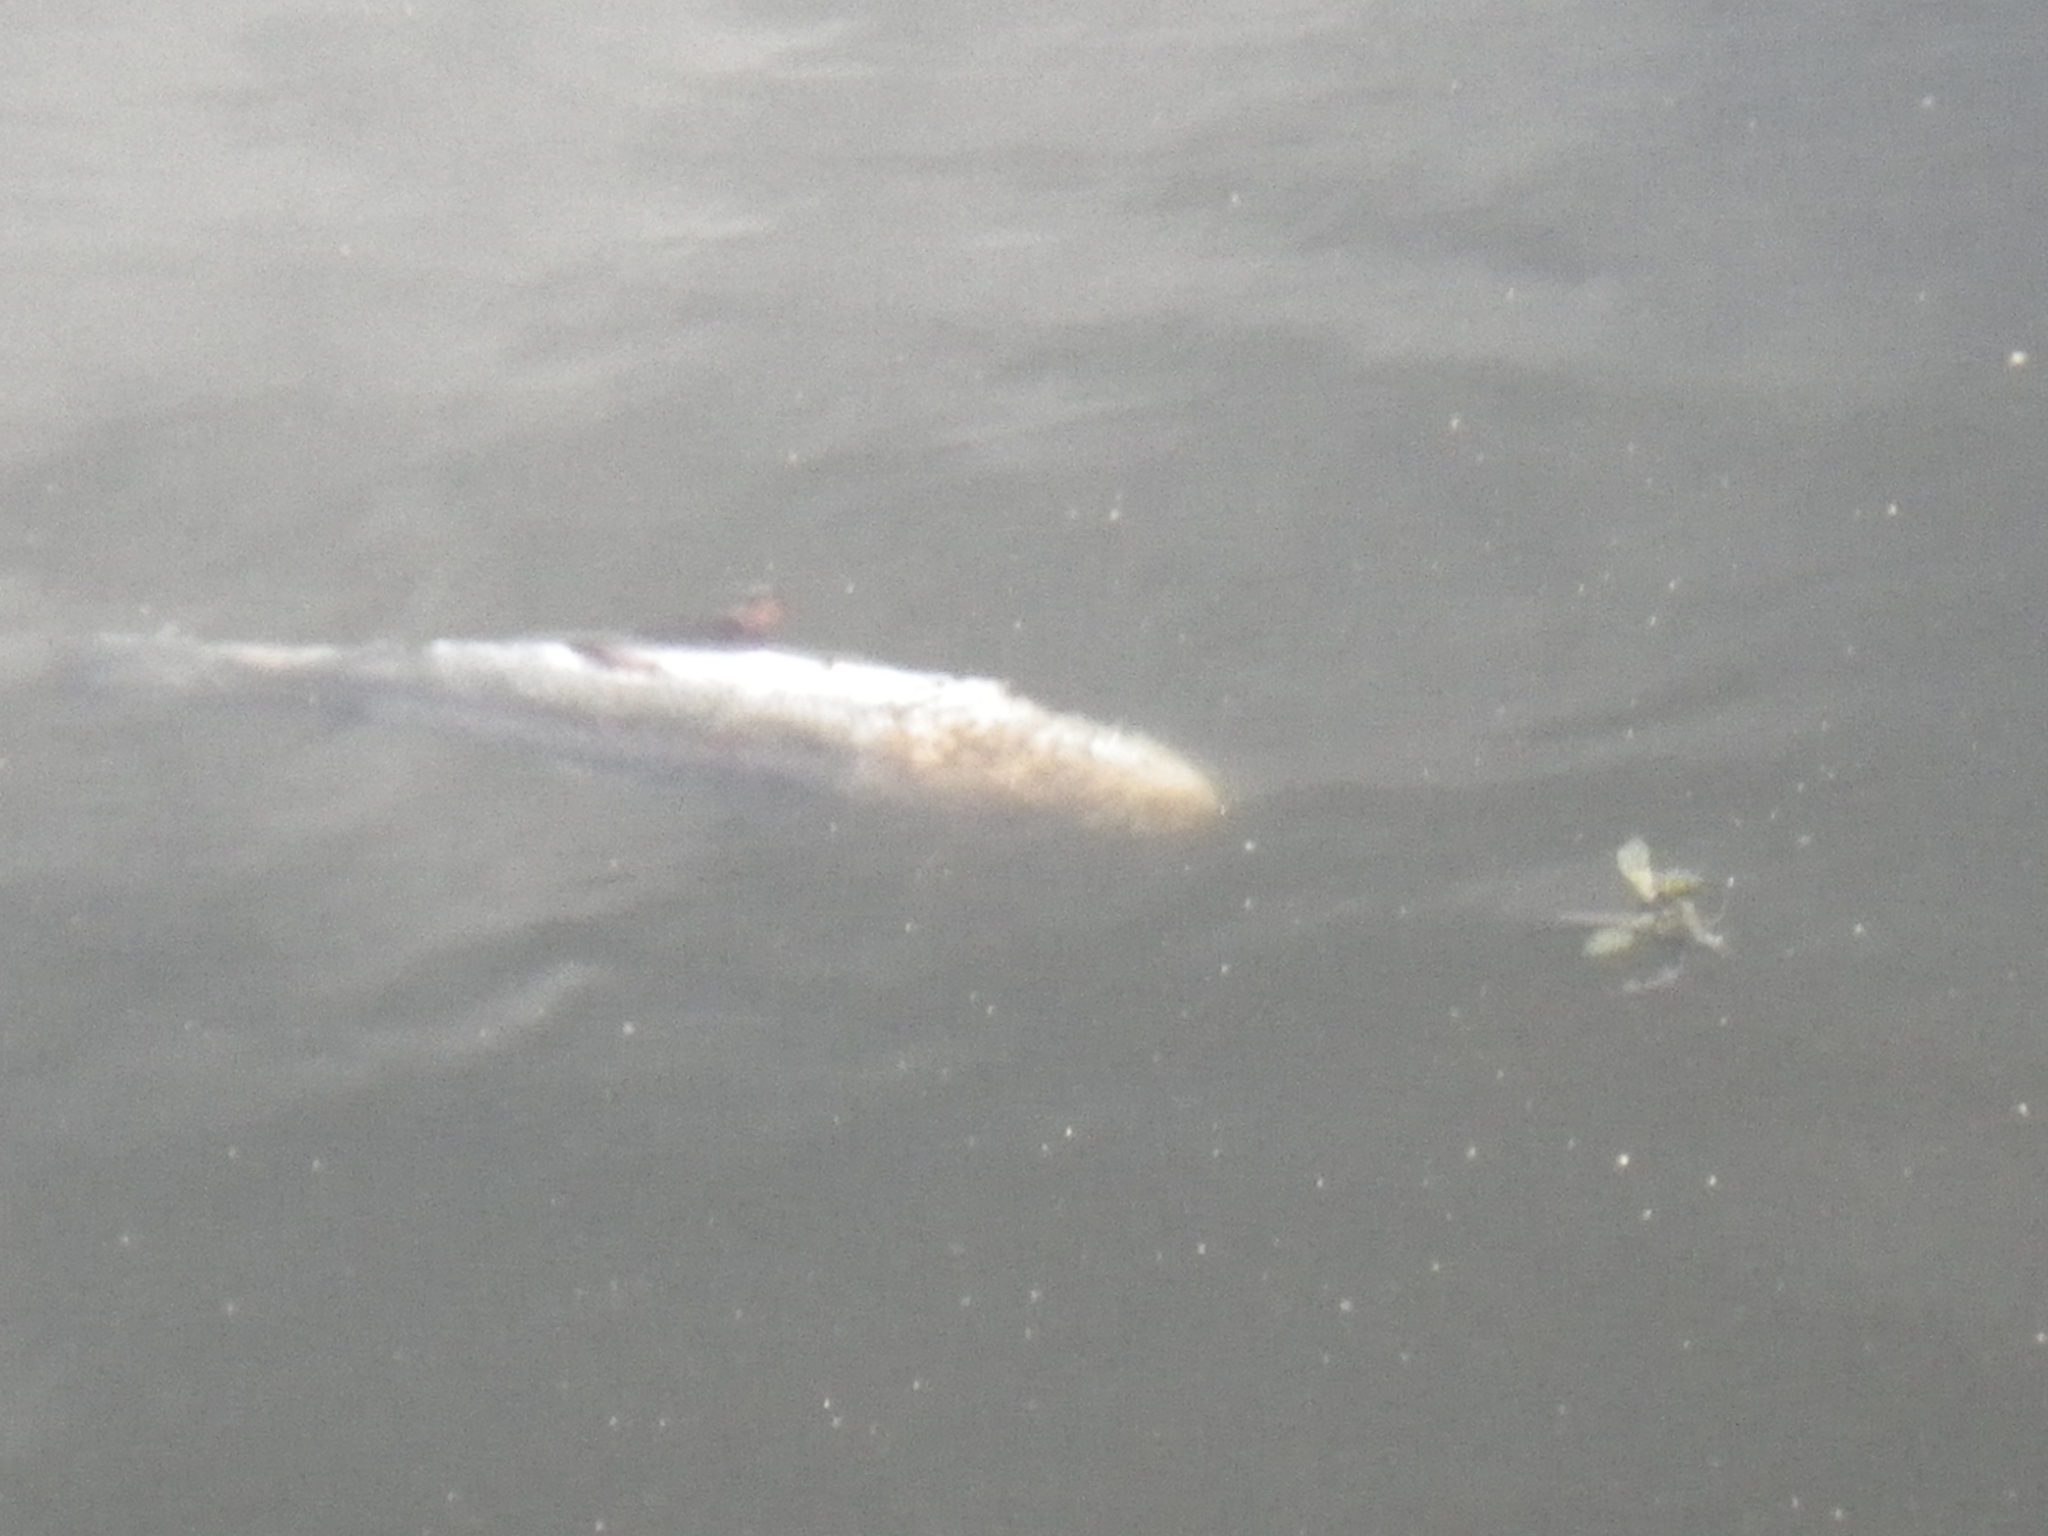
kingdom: Animalia
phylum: Chordata
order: Salmoniformes
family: Salmonidae
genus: Oncorhynchus
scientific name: Oncorhynchus mykiss
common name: Rainbow trout
